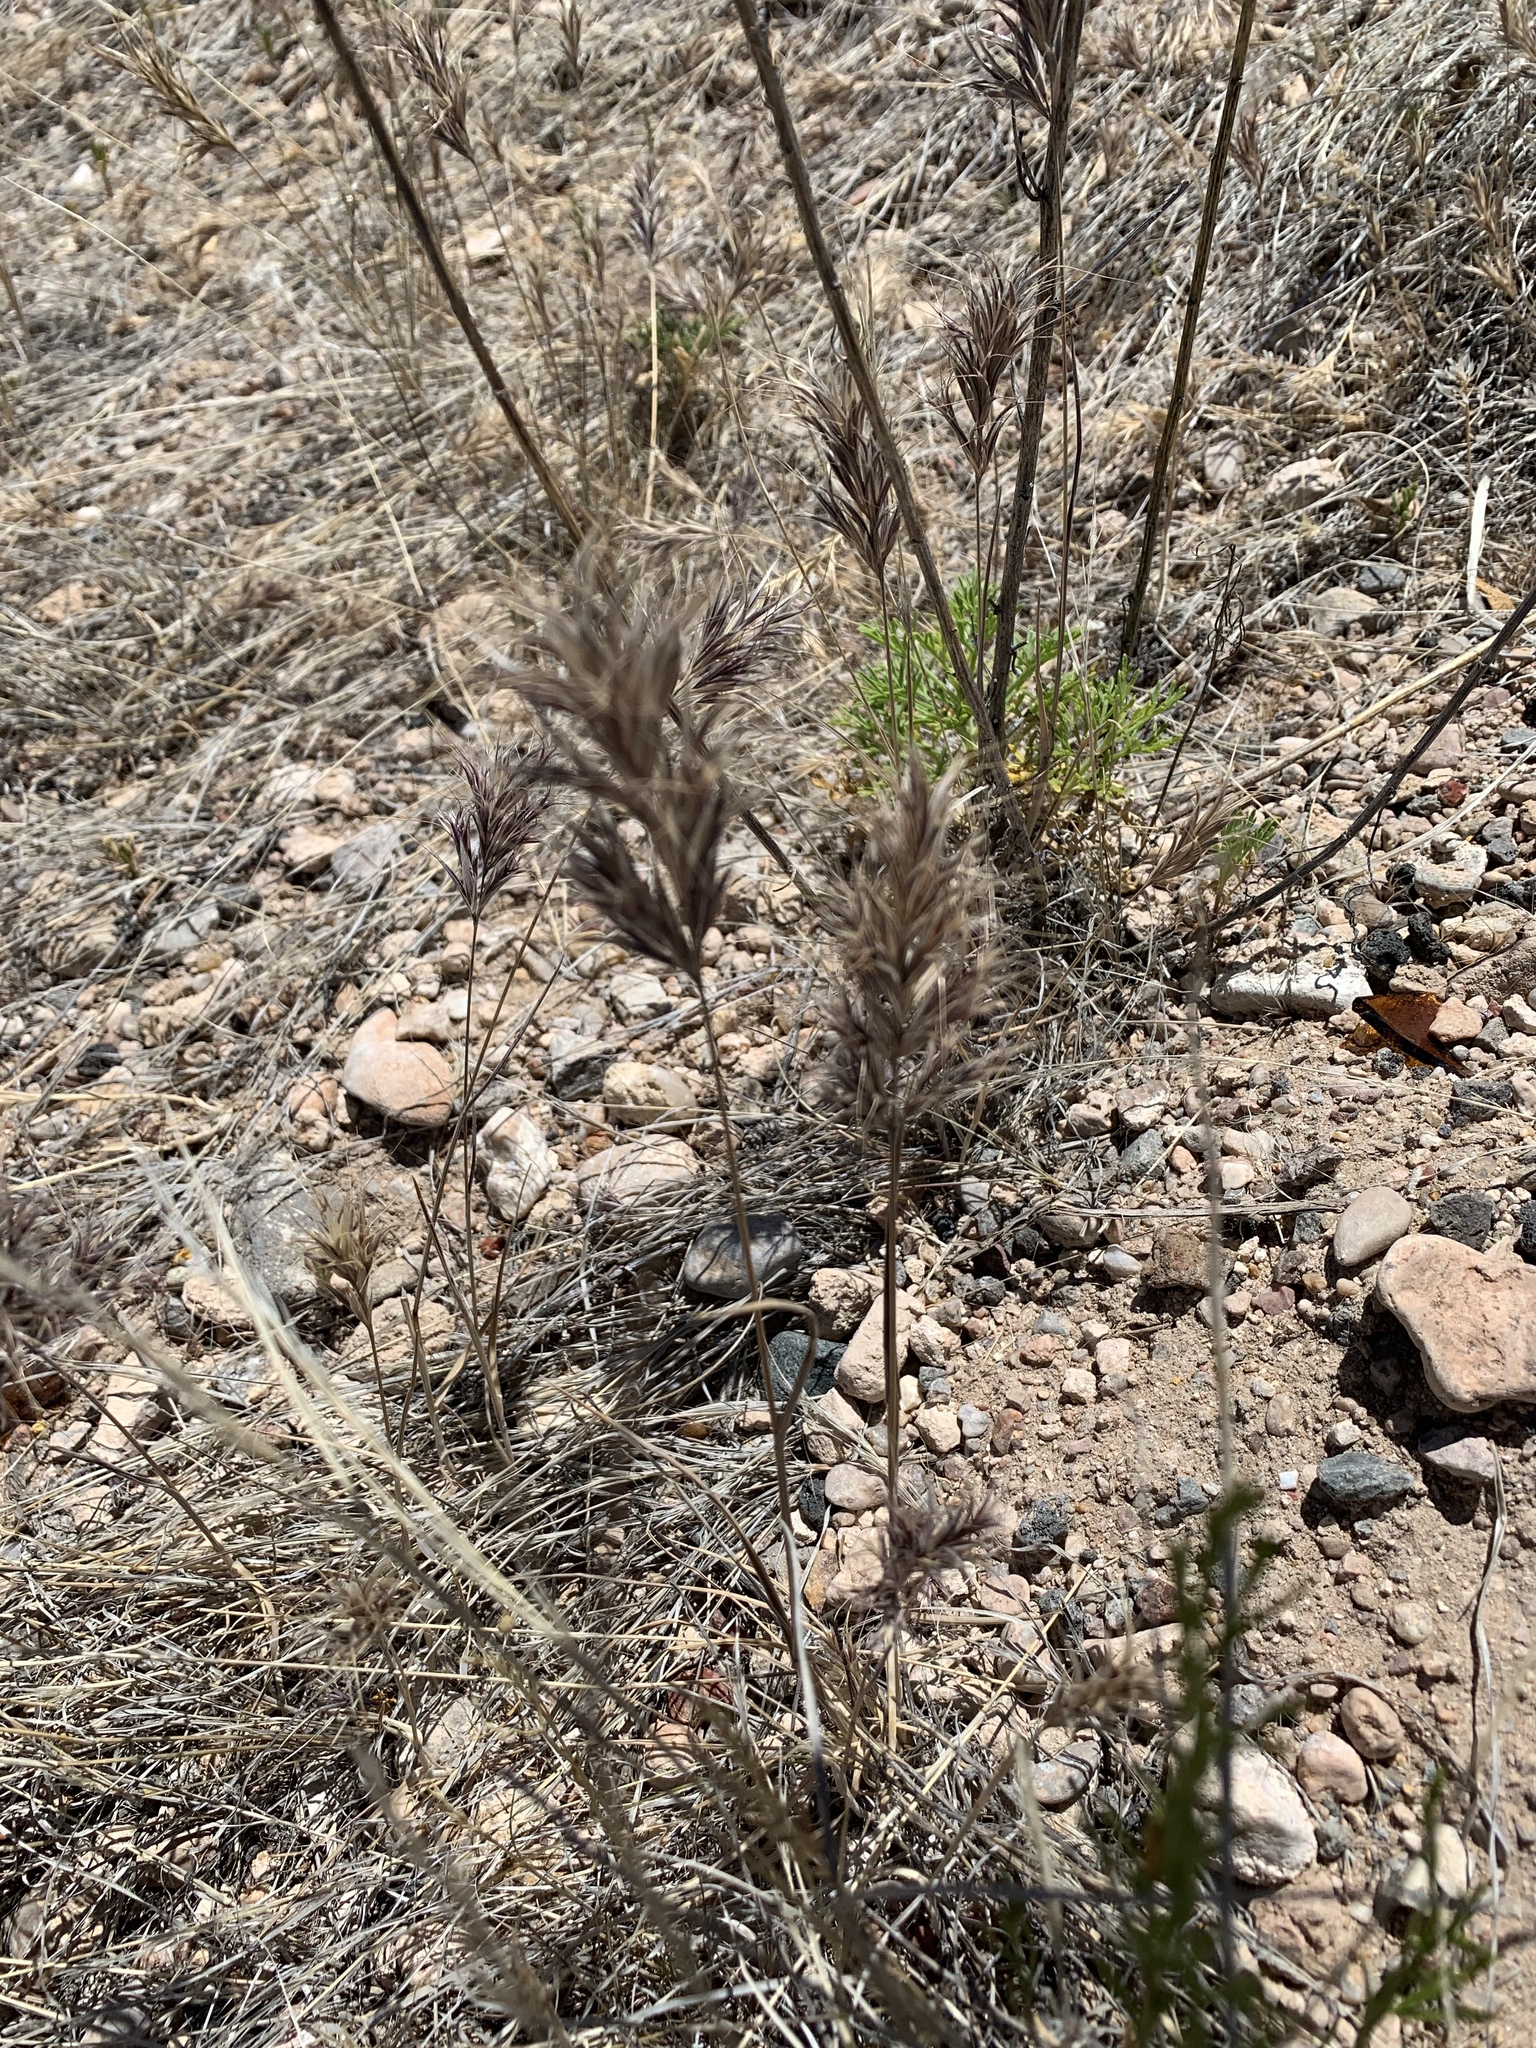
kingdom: Plantae
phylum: Tracheophyta
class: Liliopsida
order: Poales
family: Poaceae
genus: Bromus
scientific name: Bromus rubens
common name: Red brome
